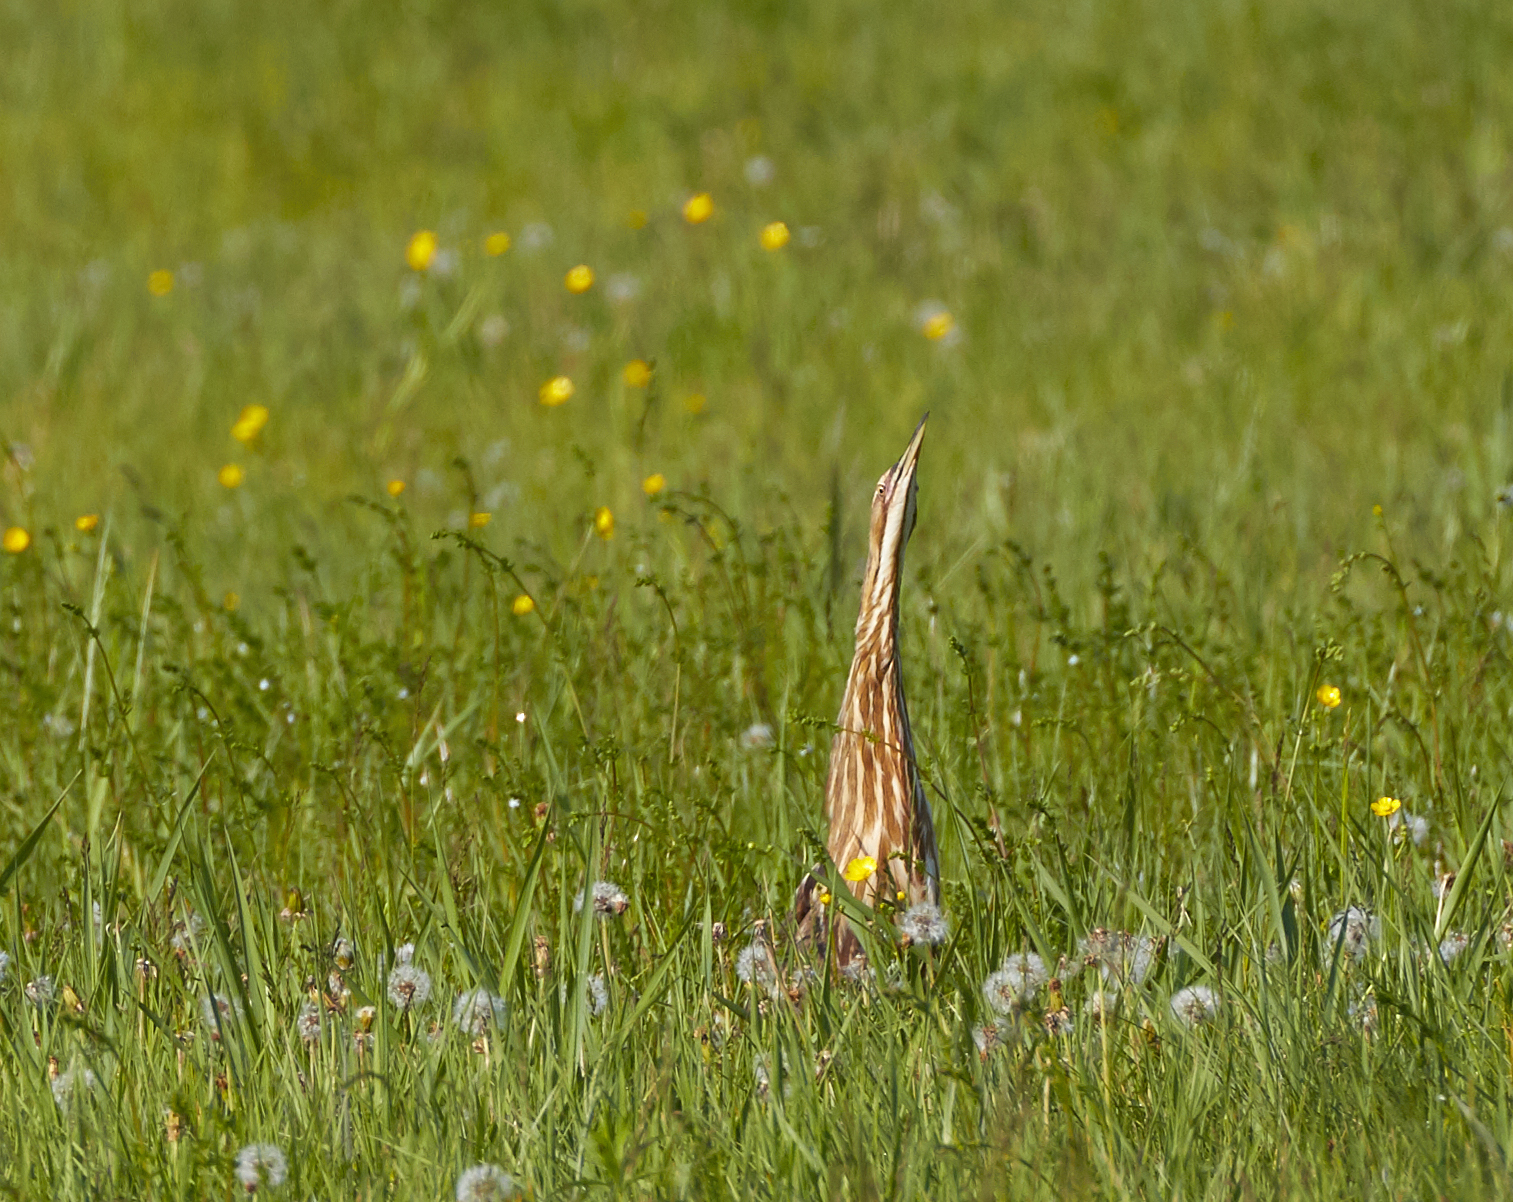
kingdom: Animalia
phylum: Chordata
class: Aves
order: Pelecaniformes
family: Ardeidae
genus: Botaurus
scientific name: Botaurus lentiginosus
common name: American bittern
